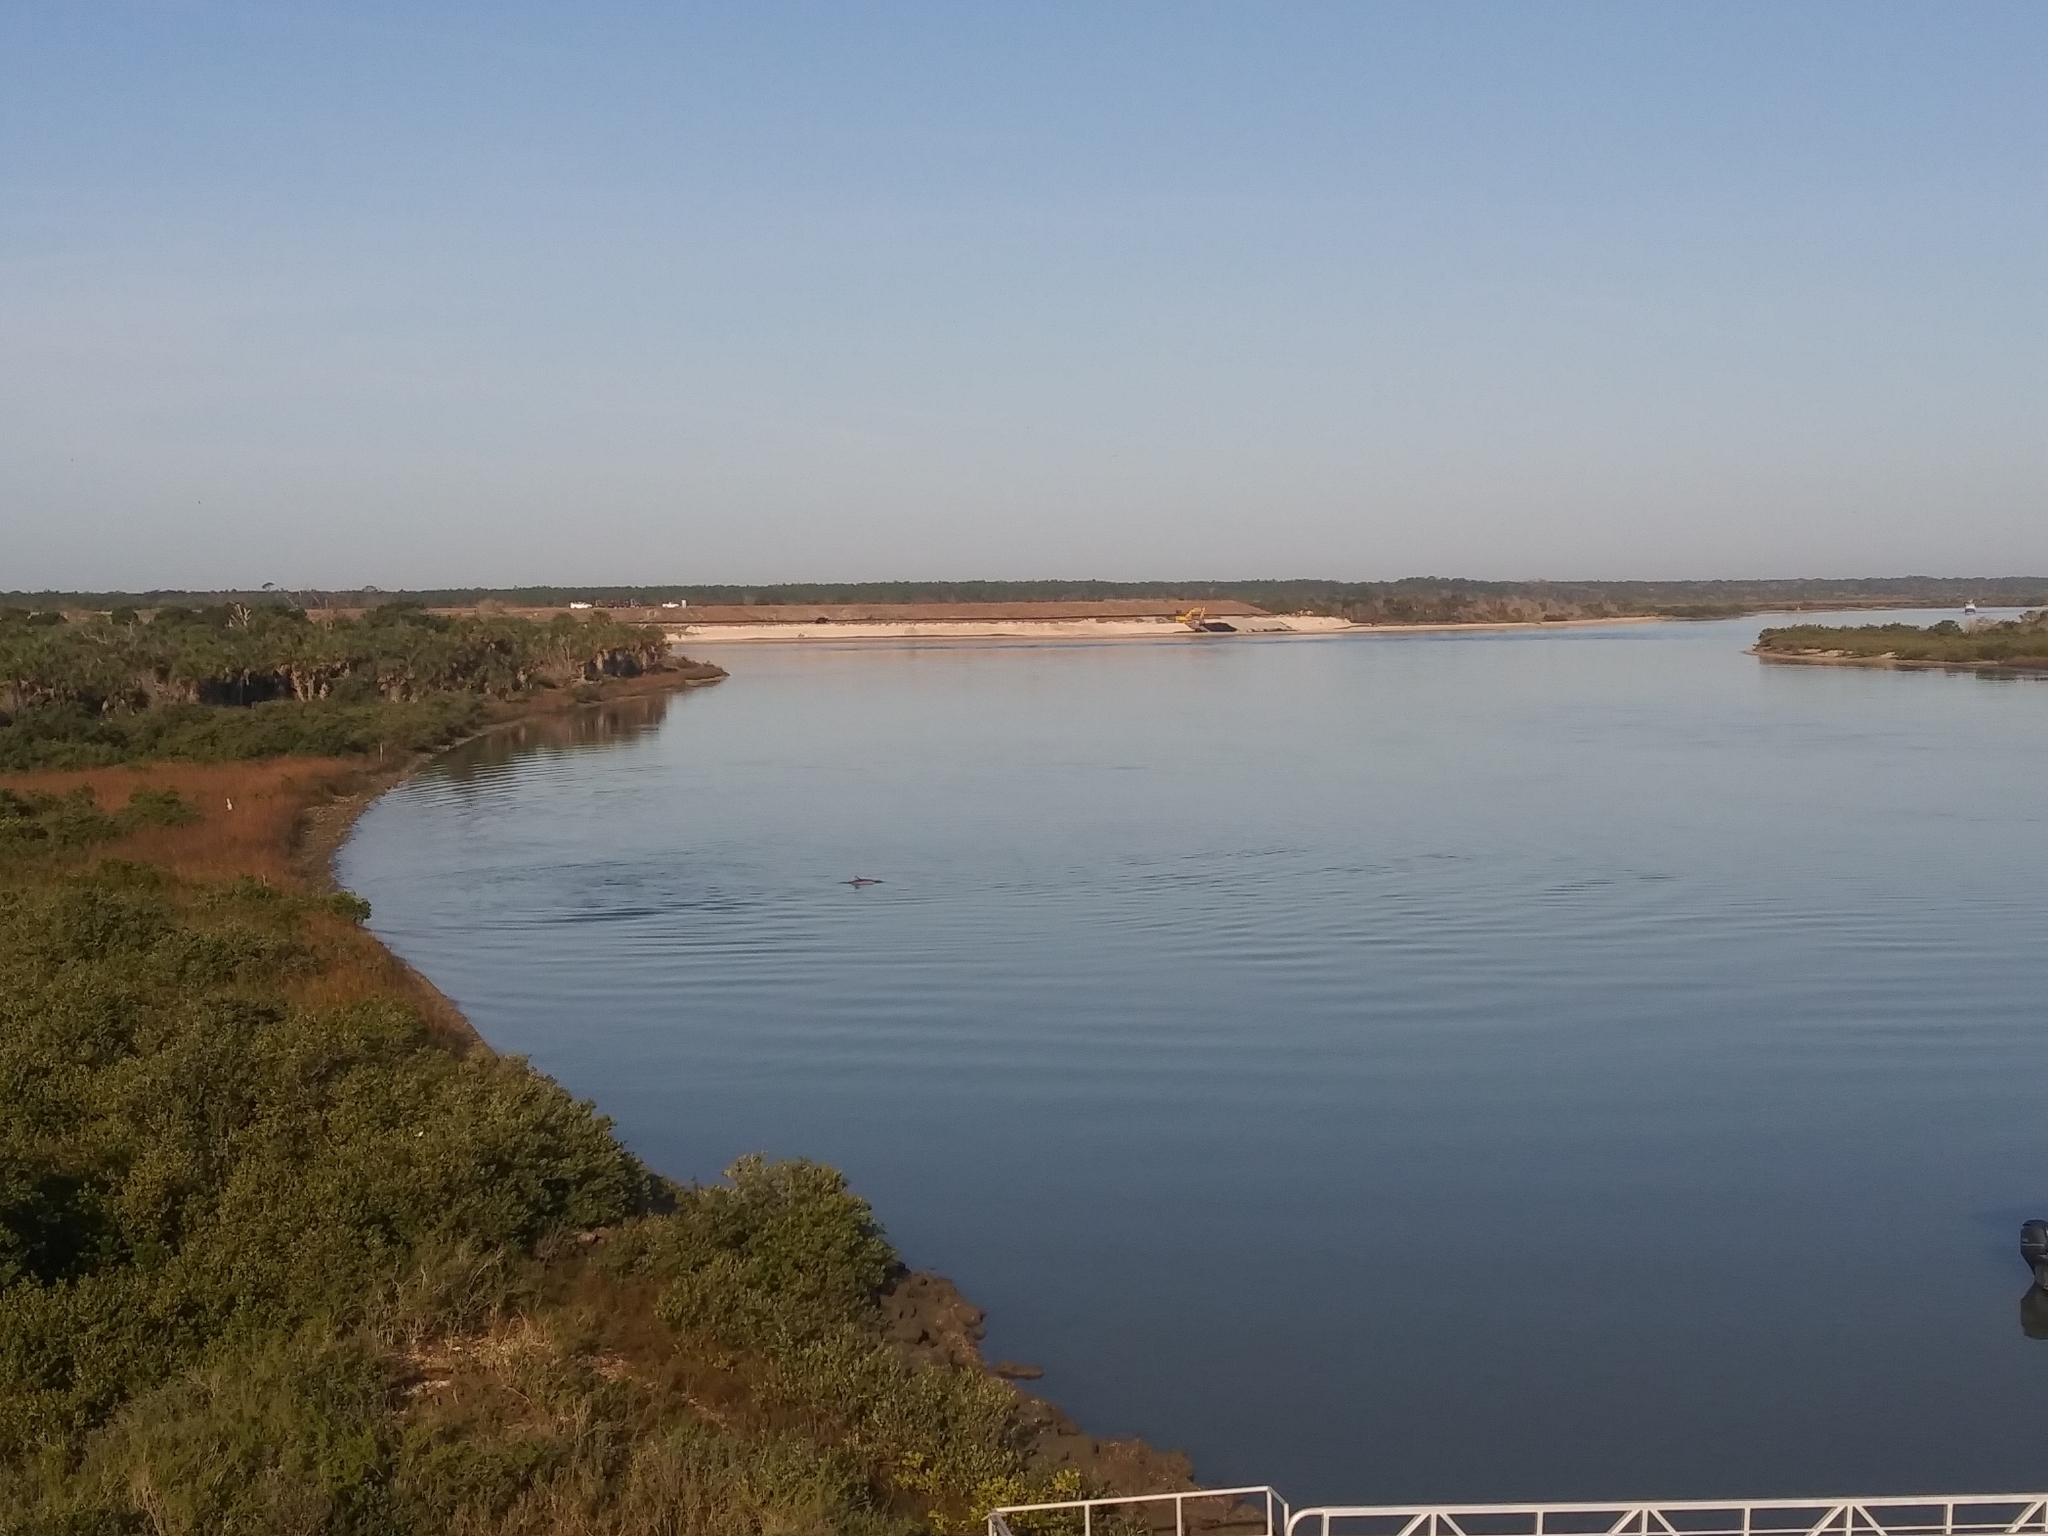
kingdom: Animalia
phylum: Chordata
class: Mammalia
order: Cetacea
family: Delphinidae
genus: Tursiops
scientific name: Tursiops truncatus
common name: Bottlenose dolphin
